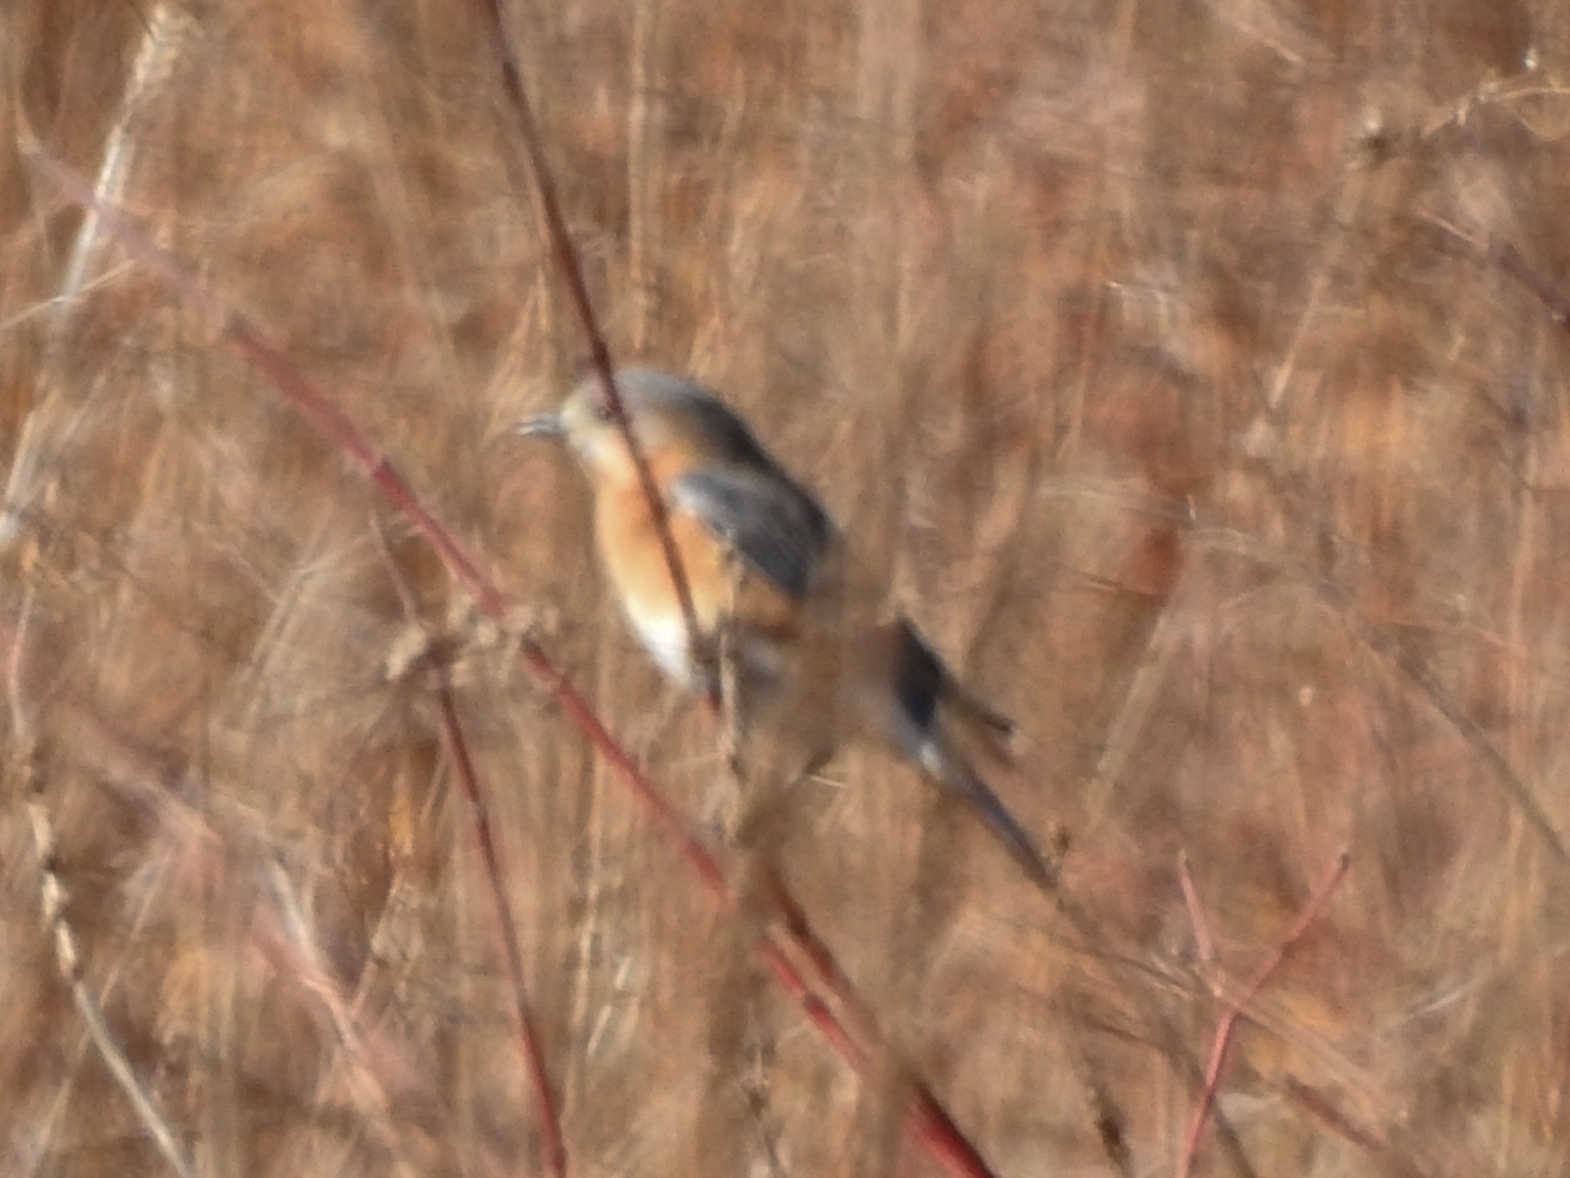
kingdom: Animalia
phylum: Chordata
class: Aves
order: Passeriformes
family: Turdidae
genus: Sialia
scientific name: Sialia sialis
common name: Eastern bluebird
